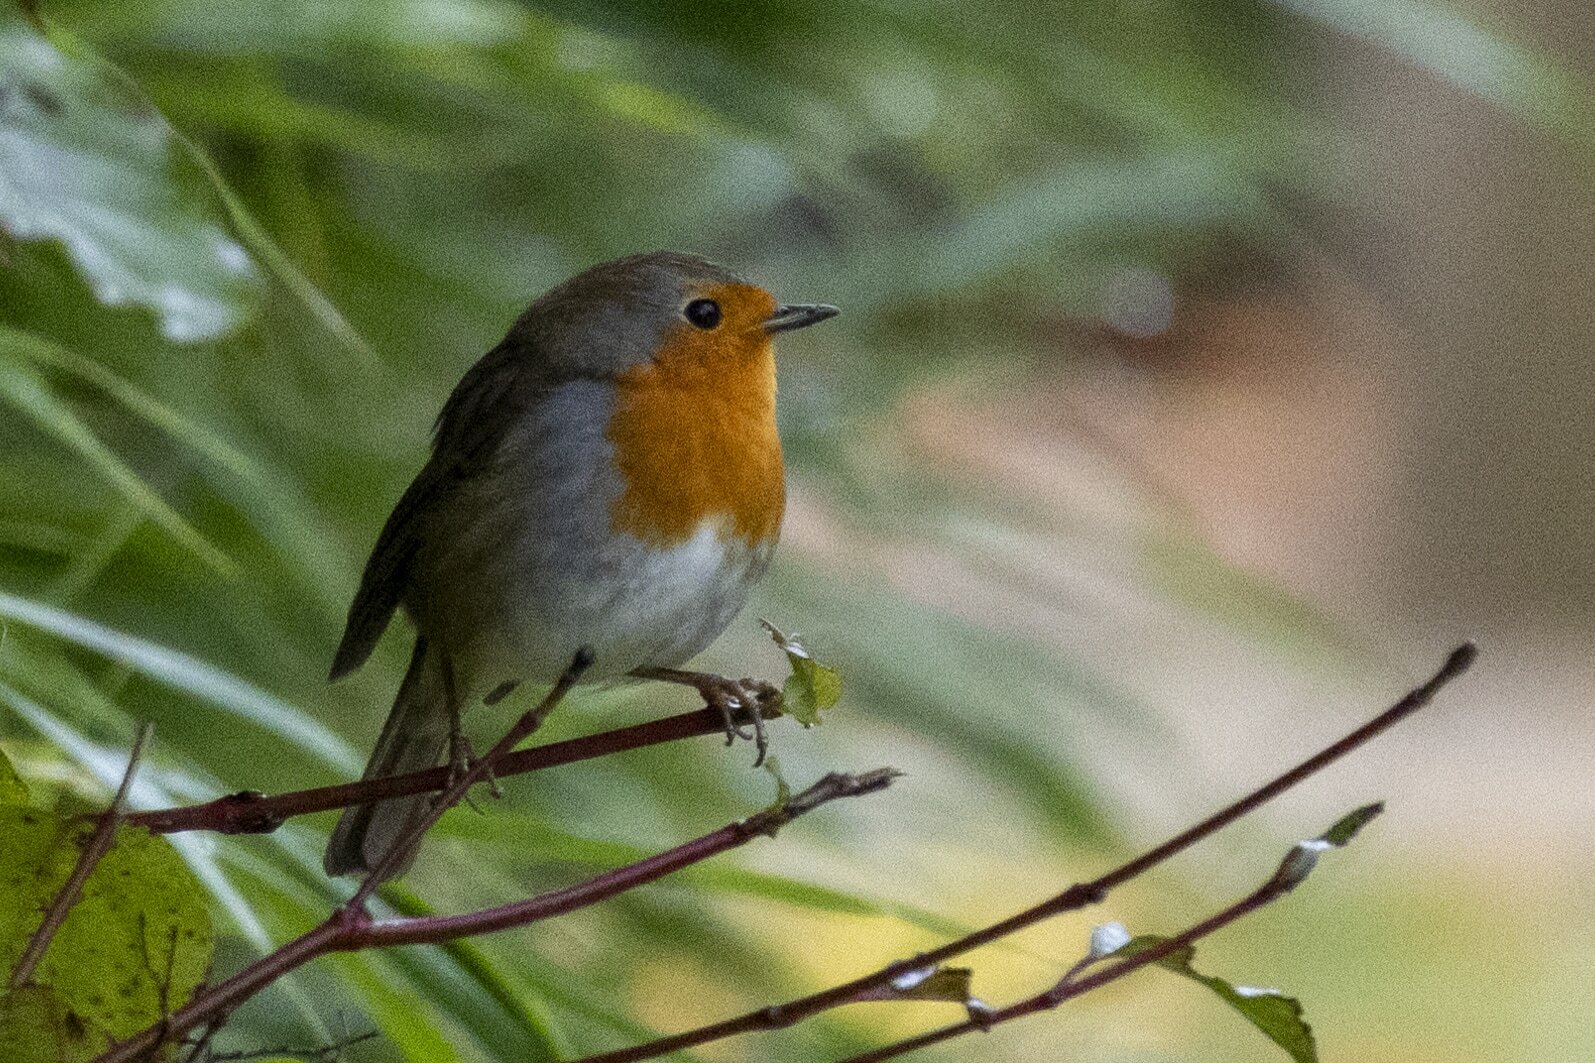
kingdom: Animalia
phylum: Chordata
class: Aves
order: Passeriformes
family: Muscicapidae
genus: Erithacus
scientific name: Erithacus rubecula
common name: European robin
